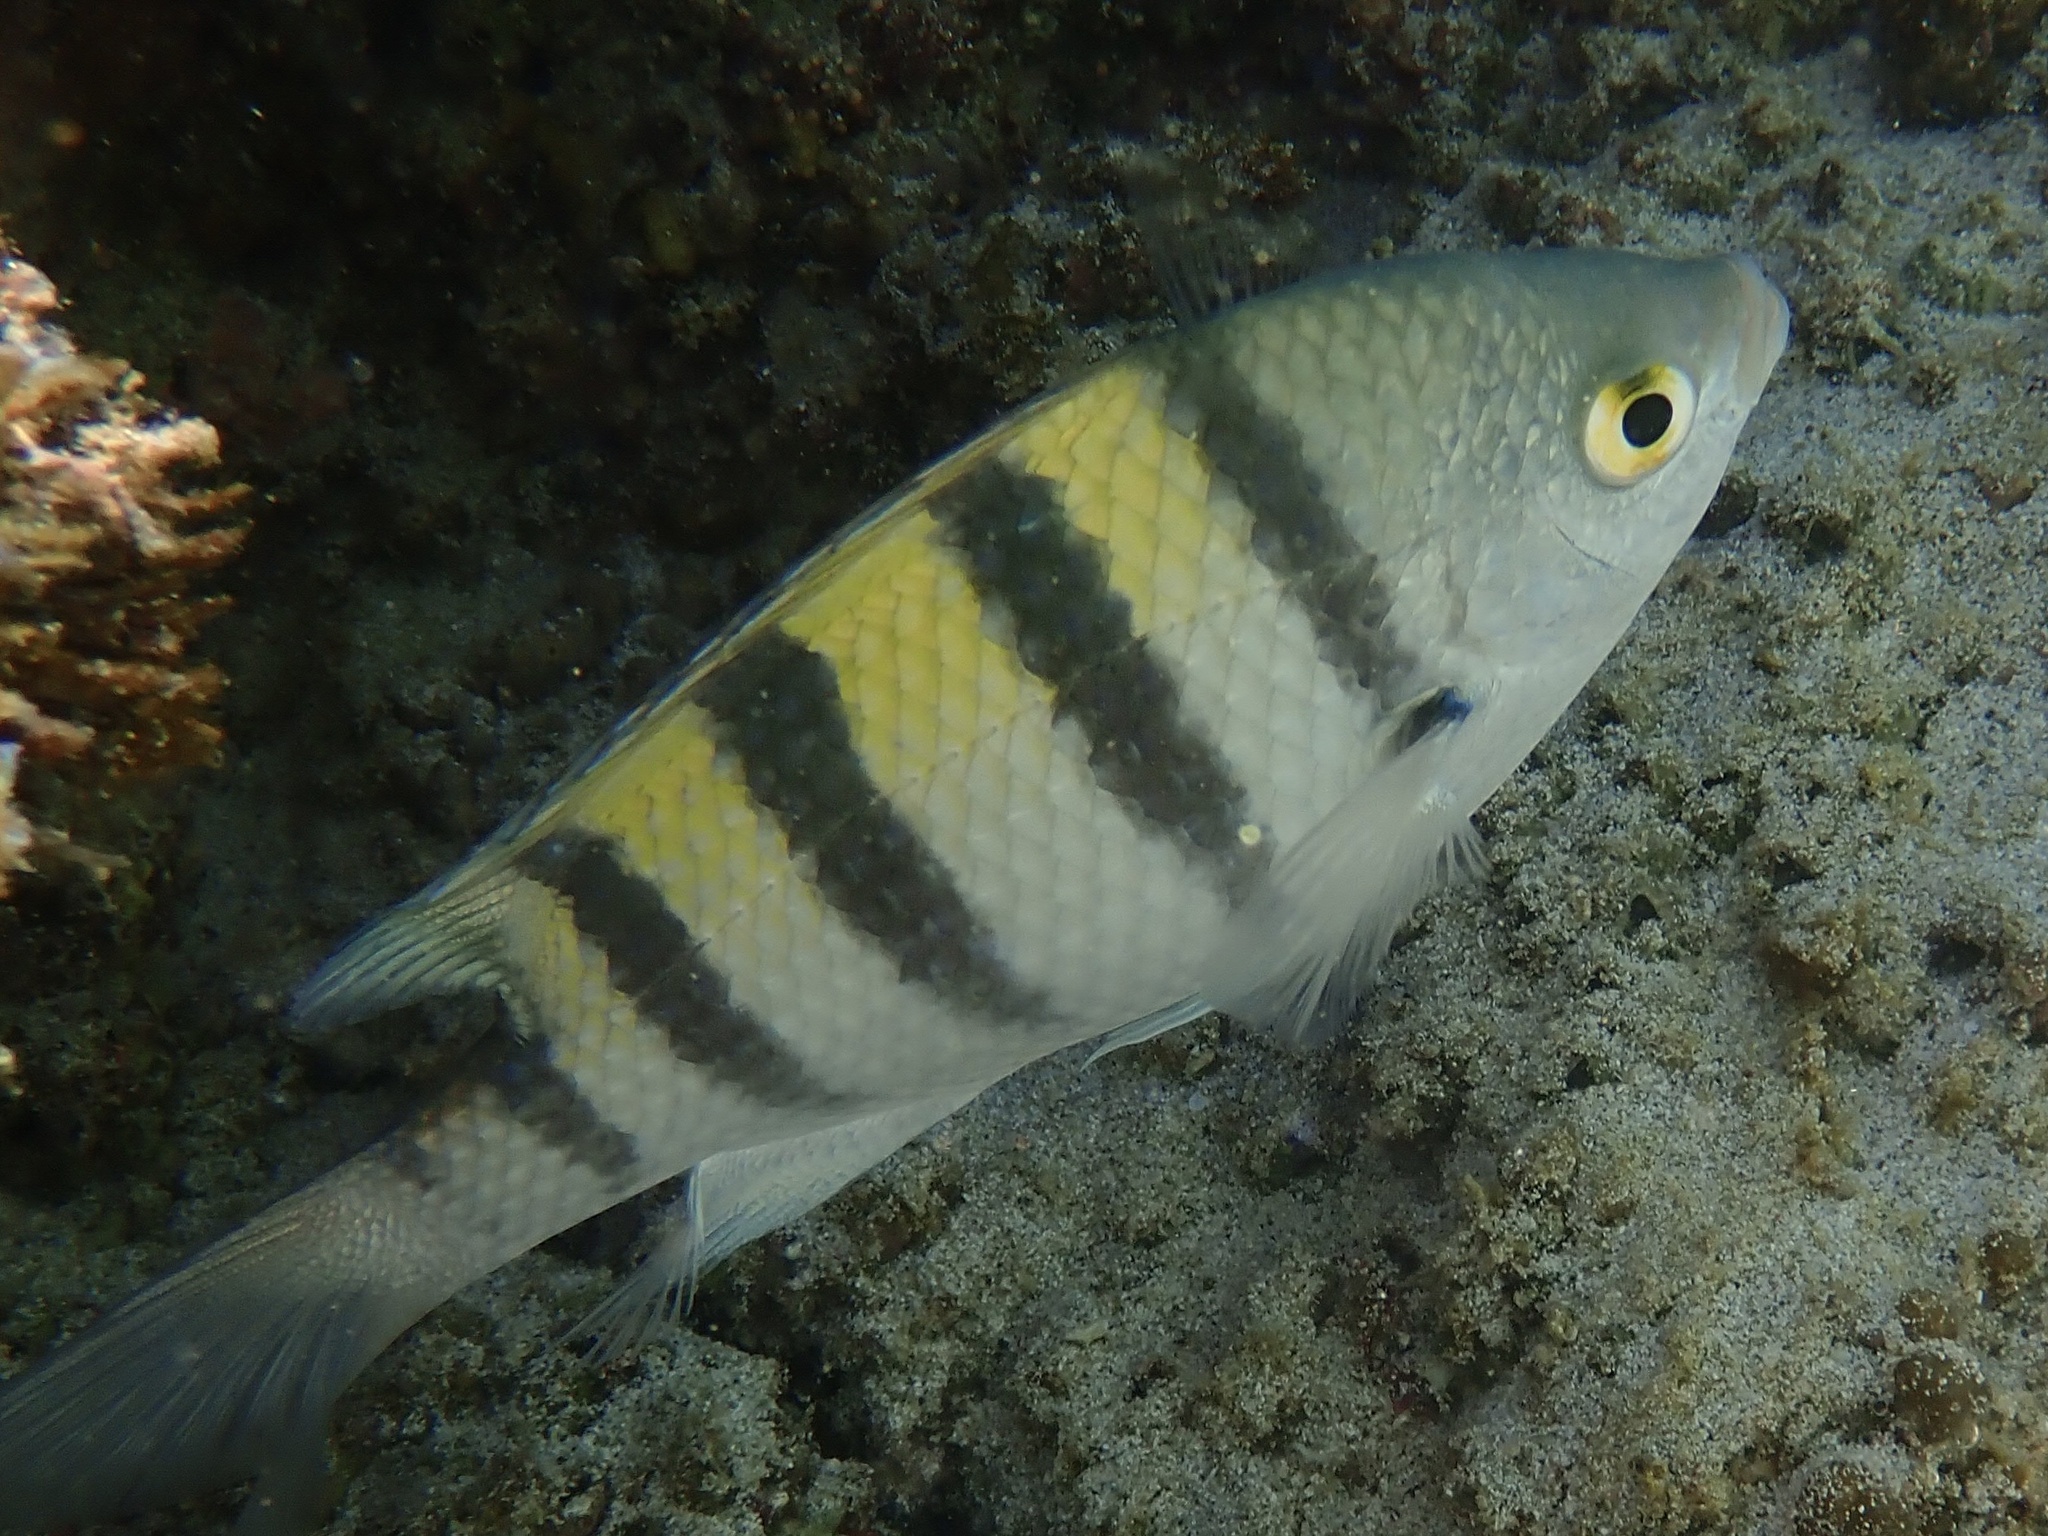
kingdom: Animalia
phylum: Chordata
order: Perciformes
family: Pomacentridae
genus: Abudefduf
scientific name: Abudefduf troschelii
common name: Panamic sergeant major
